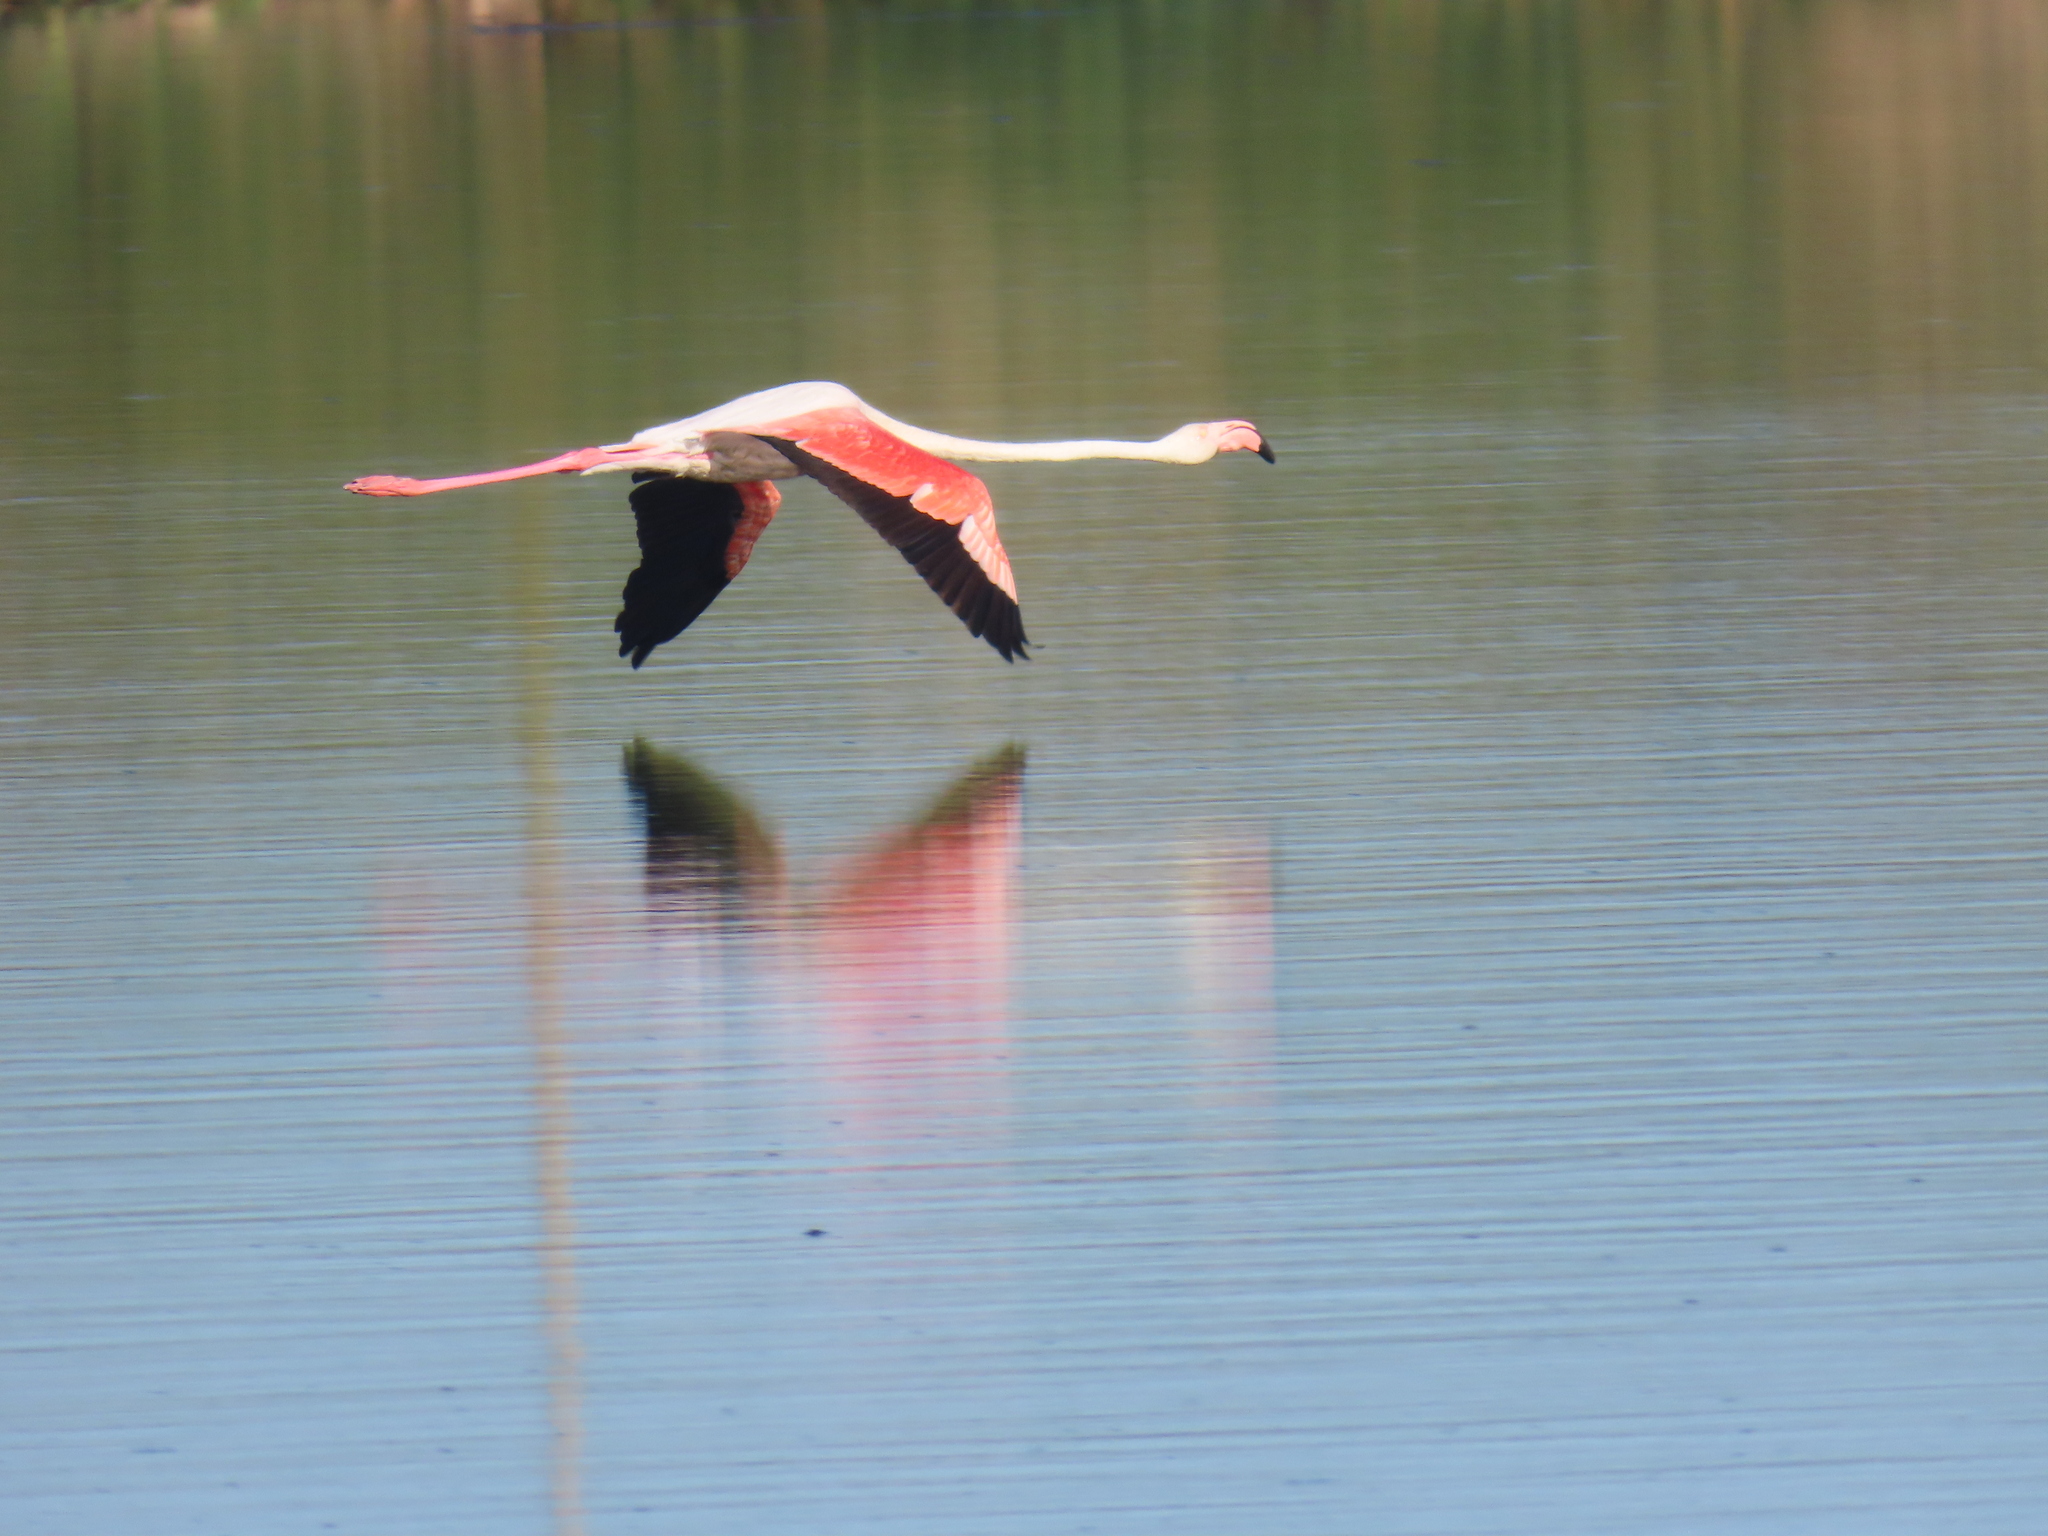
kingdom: Animalia
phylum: Chordata
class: Aves
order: Phoenicopteriformes
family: Phoenicopteridae
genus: Phoenicopterus
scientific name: Phoenicopterus roseus
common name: Greater flamingo
